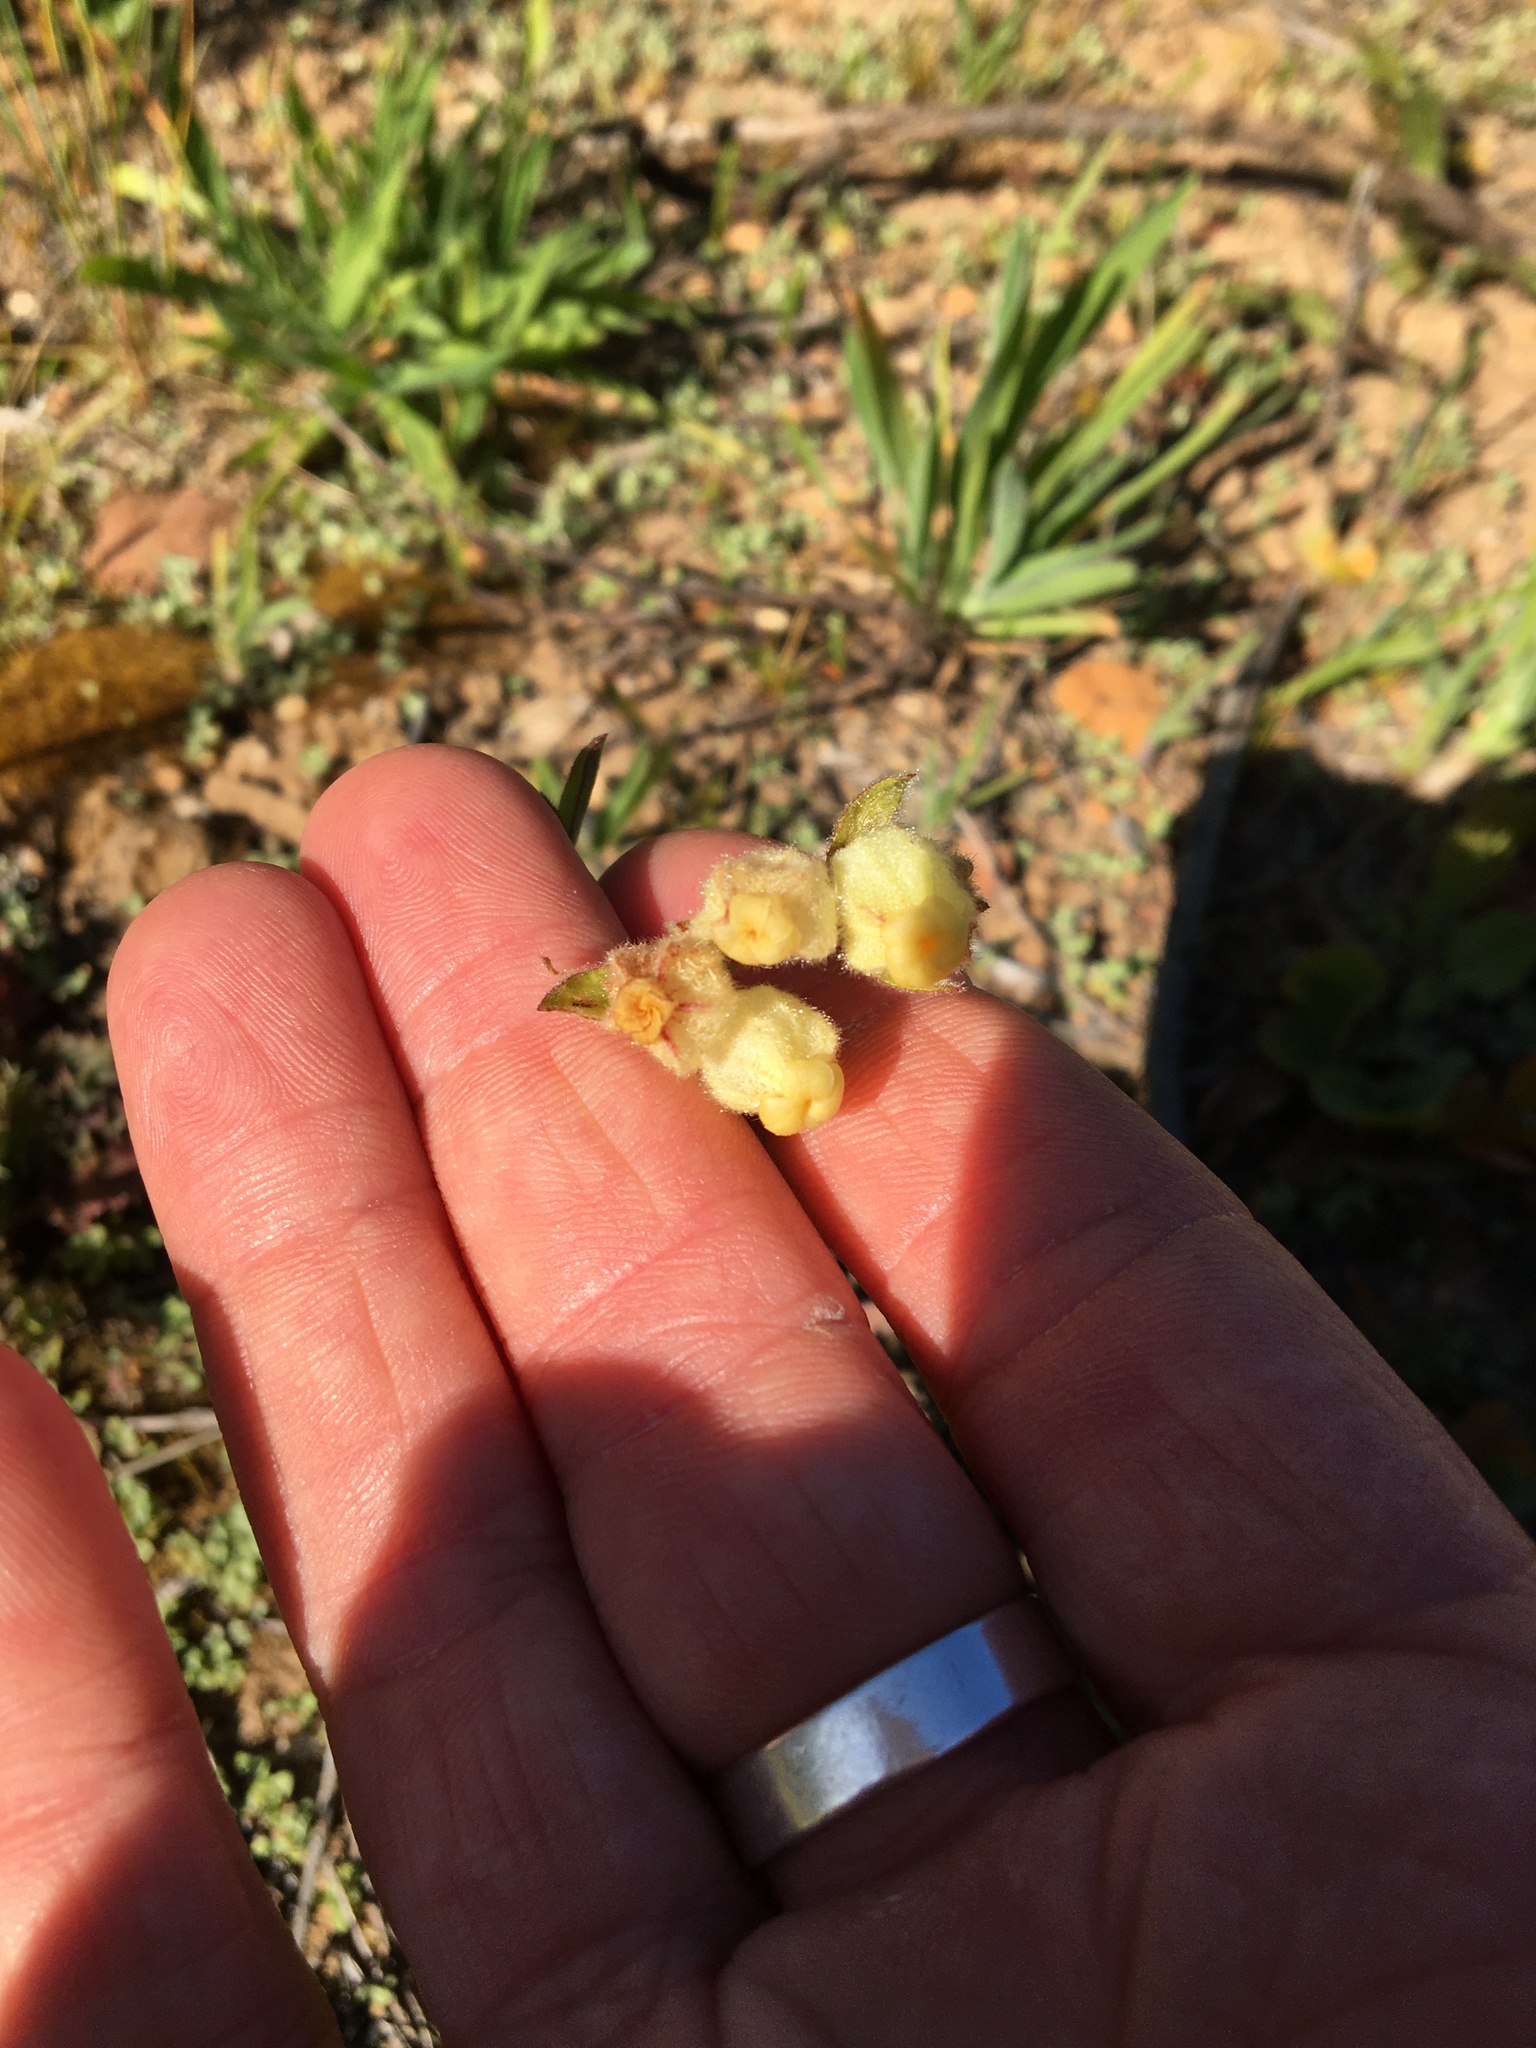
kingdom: Plantae
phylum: Tracheophyta
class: Magnoliopsida
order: Malvales
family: Malvaceae
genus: Hermannia
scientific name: Hermannia hyssopifolia
